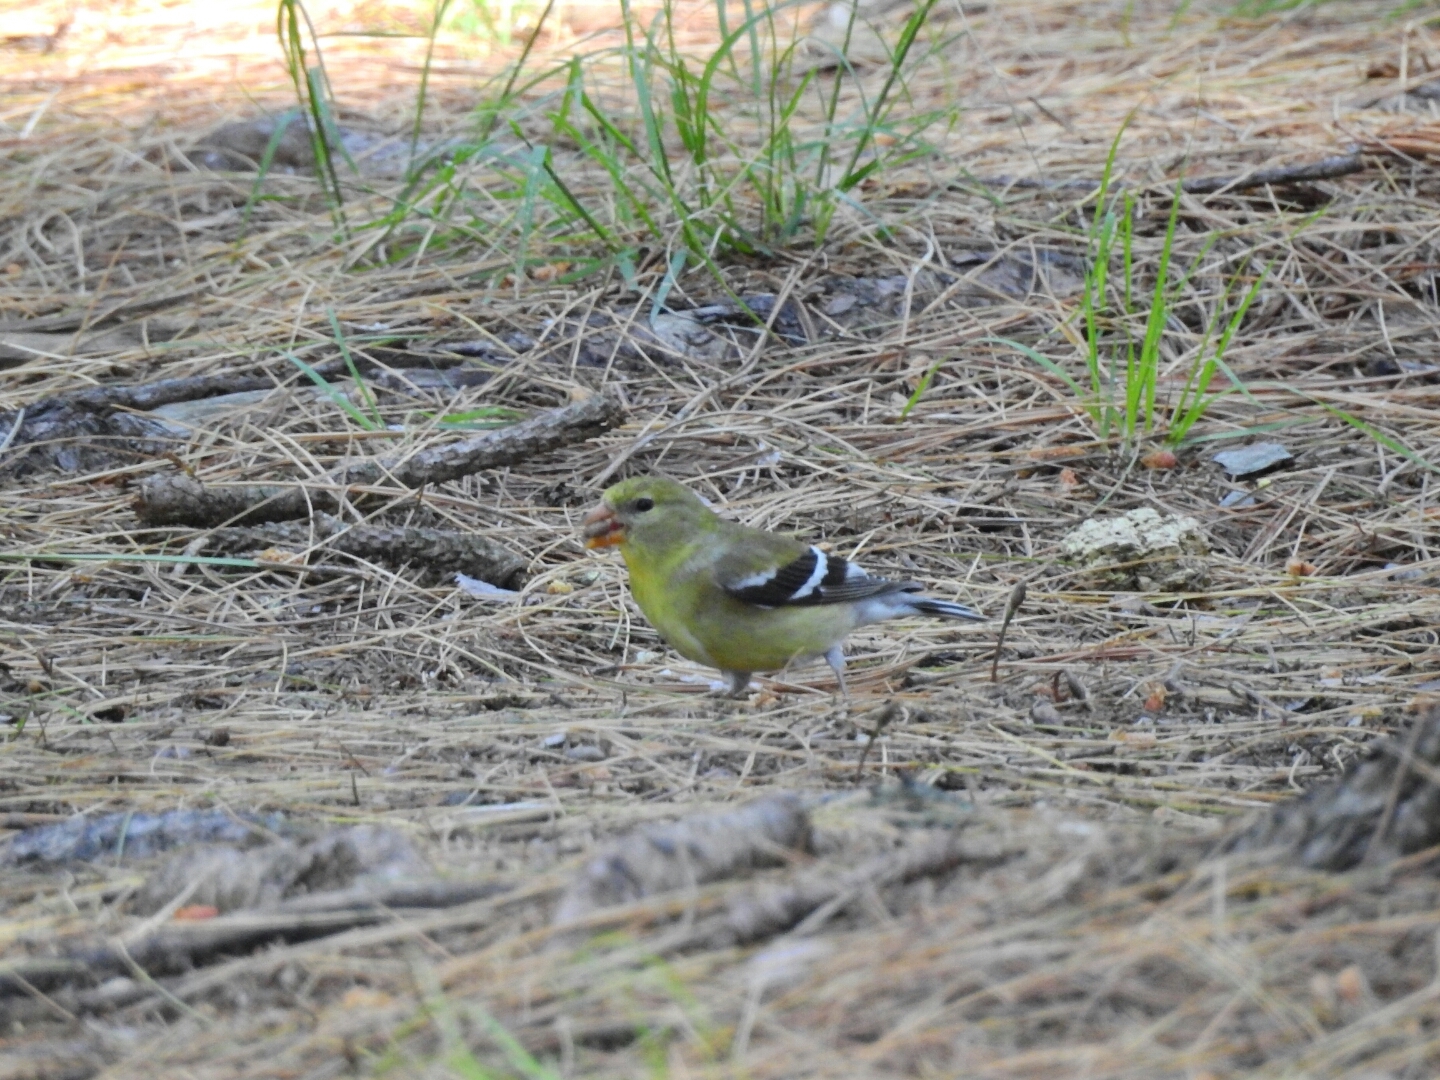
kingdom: Animalia
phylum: Chordata
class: Aves
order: Passeriformes
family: Fringillidae
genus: Spinus
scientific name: Spinus tristis
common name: American goldfinch
